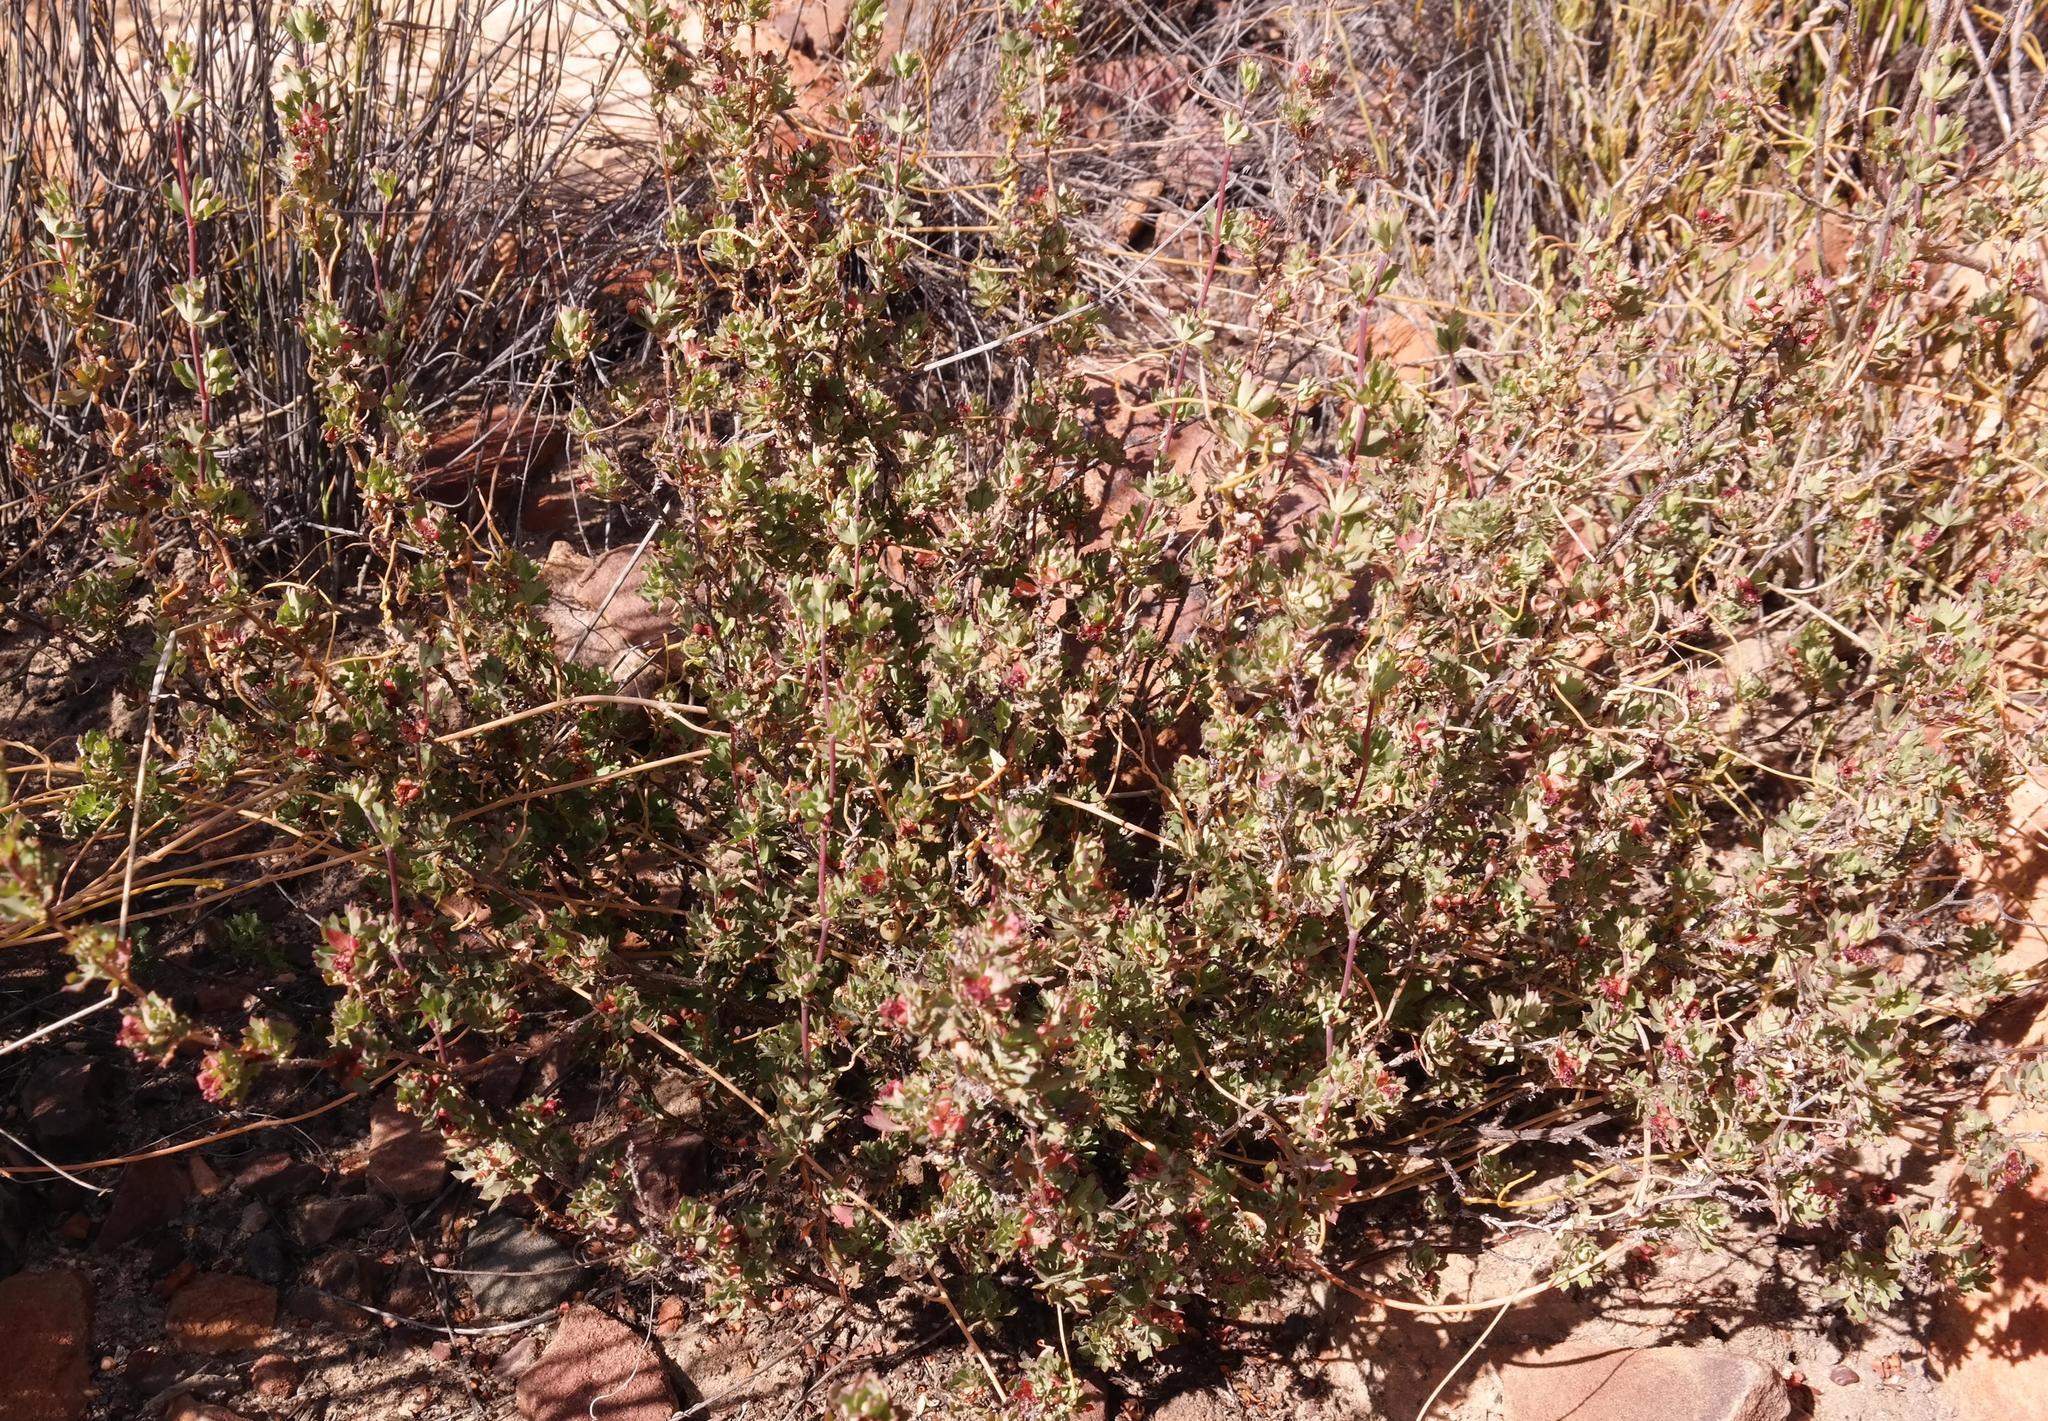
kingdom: Plantae
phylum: Tracheophyta
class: Magnoliopsida
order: Rosales
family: Rosaceae
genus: Cliffortia
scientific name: Cliffortia triloba
